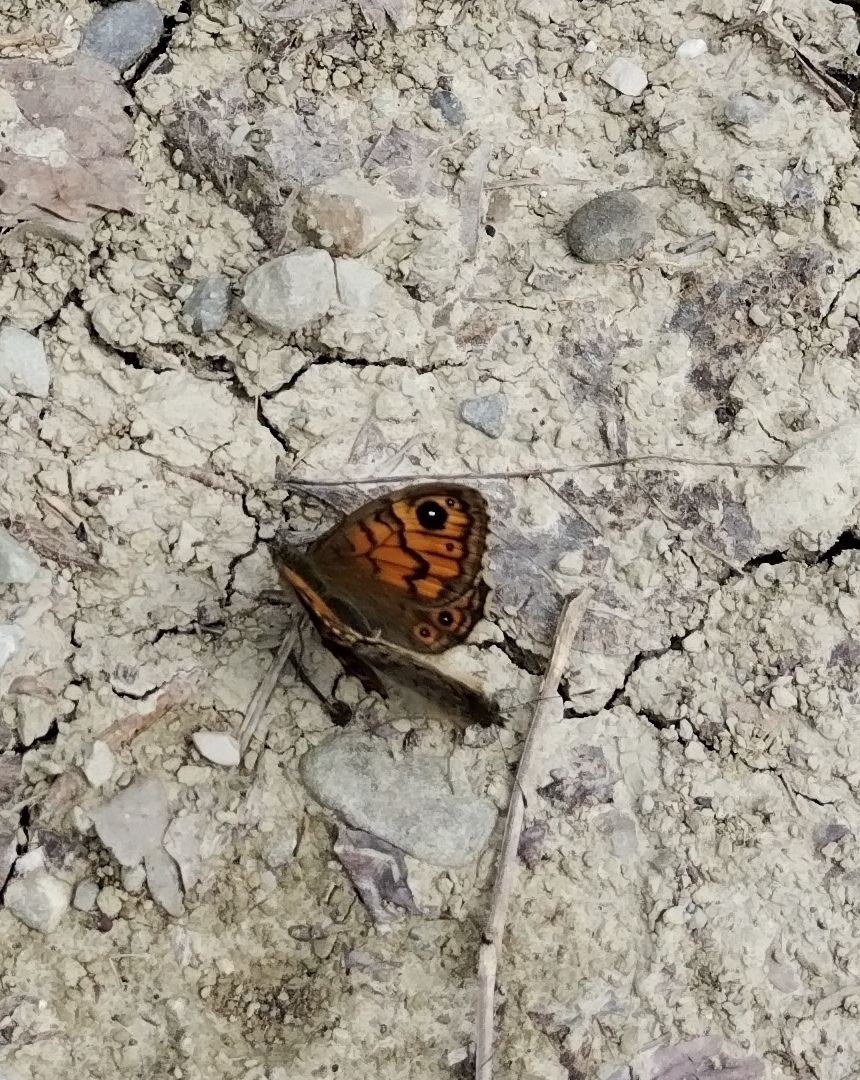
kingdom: Animalia
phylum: Arthropoda
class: Insecta
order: Lepidoptera
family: Nymphalidae
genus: Pararge
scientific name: Pararge Lasiommata megera
